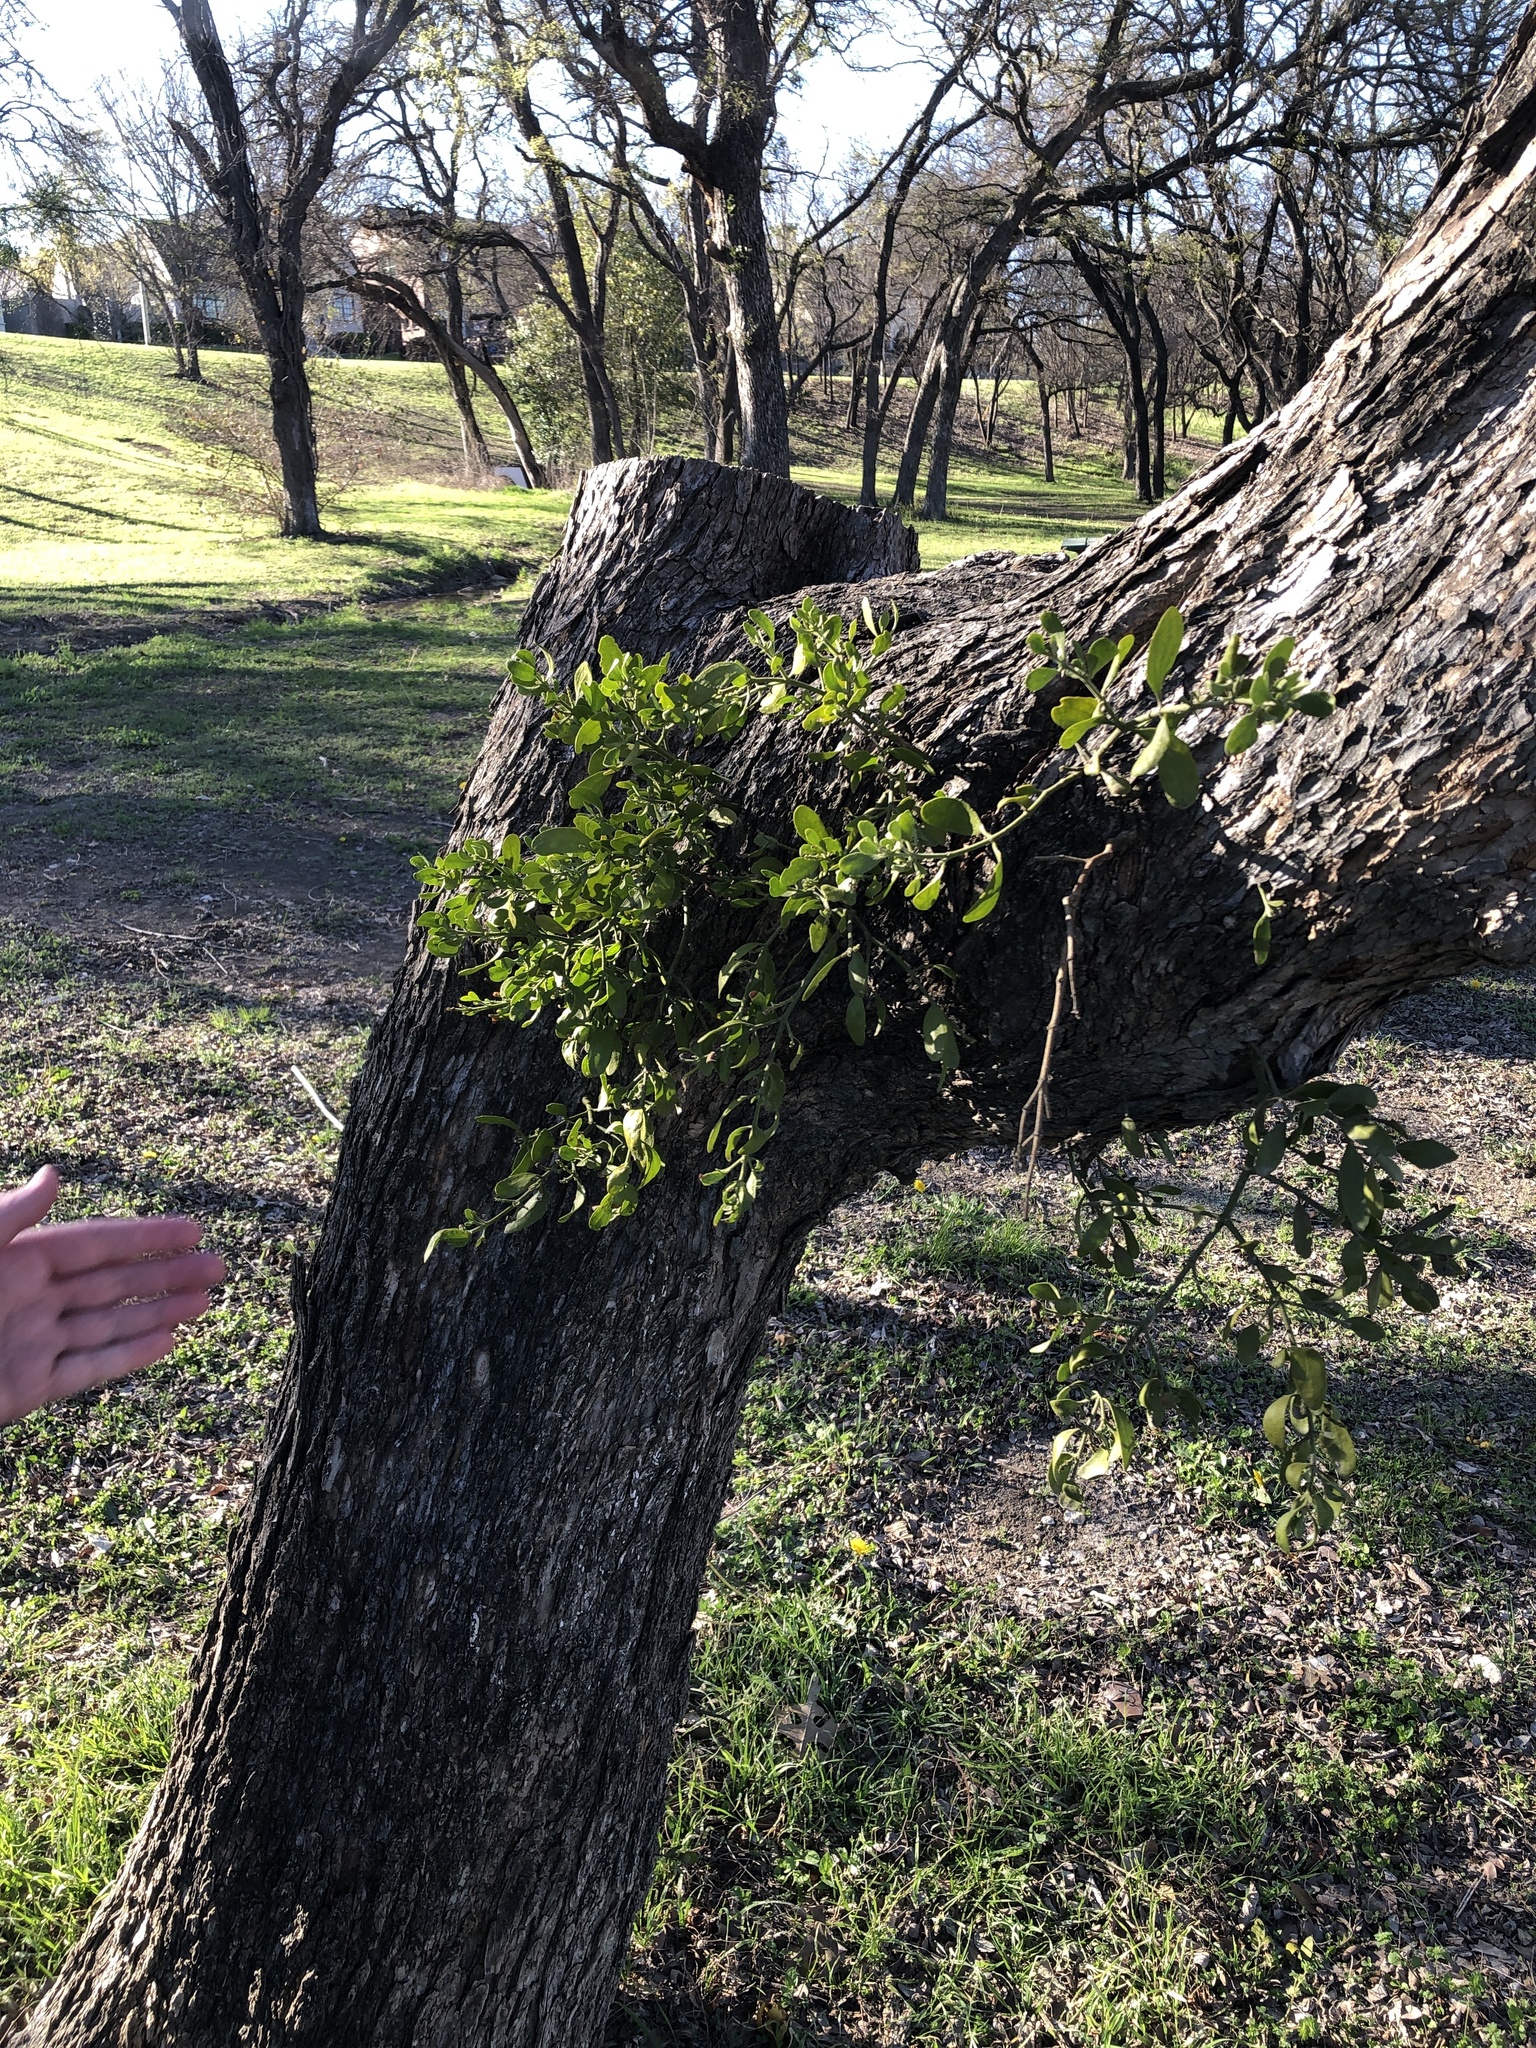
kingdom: Plantae
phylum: Tracheophyta
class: Magnoliopsida
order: Santalales
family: Viscaceae
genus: Phoradendron
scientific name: Phoradendron leucarpum
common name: Pacific mistletoe
